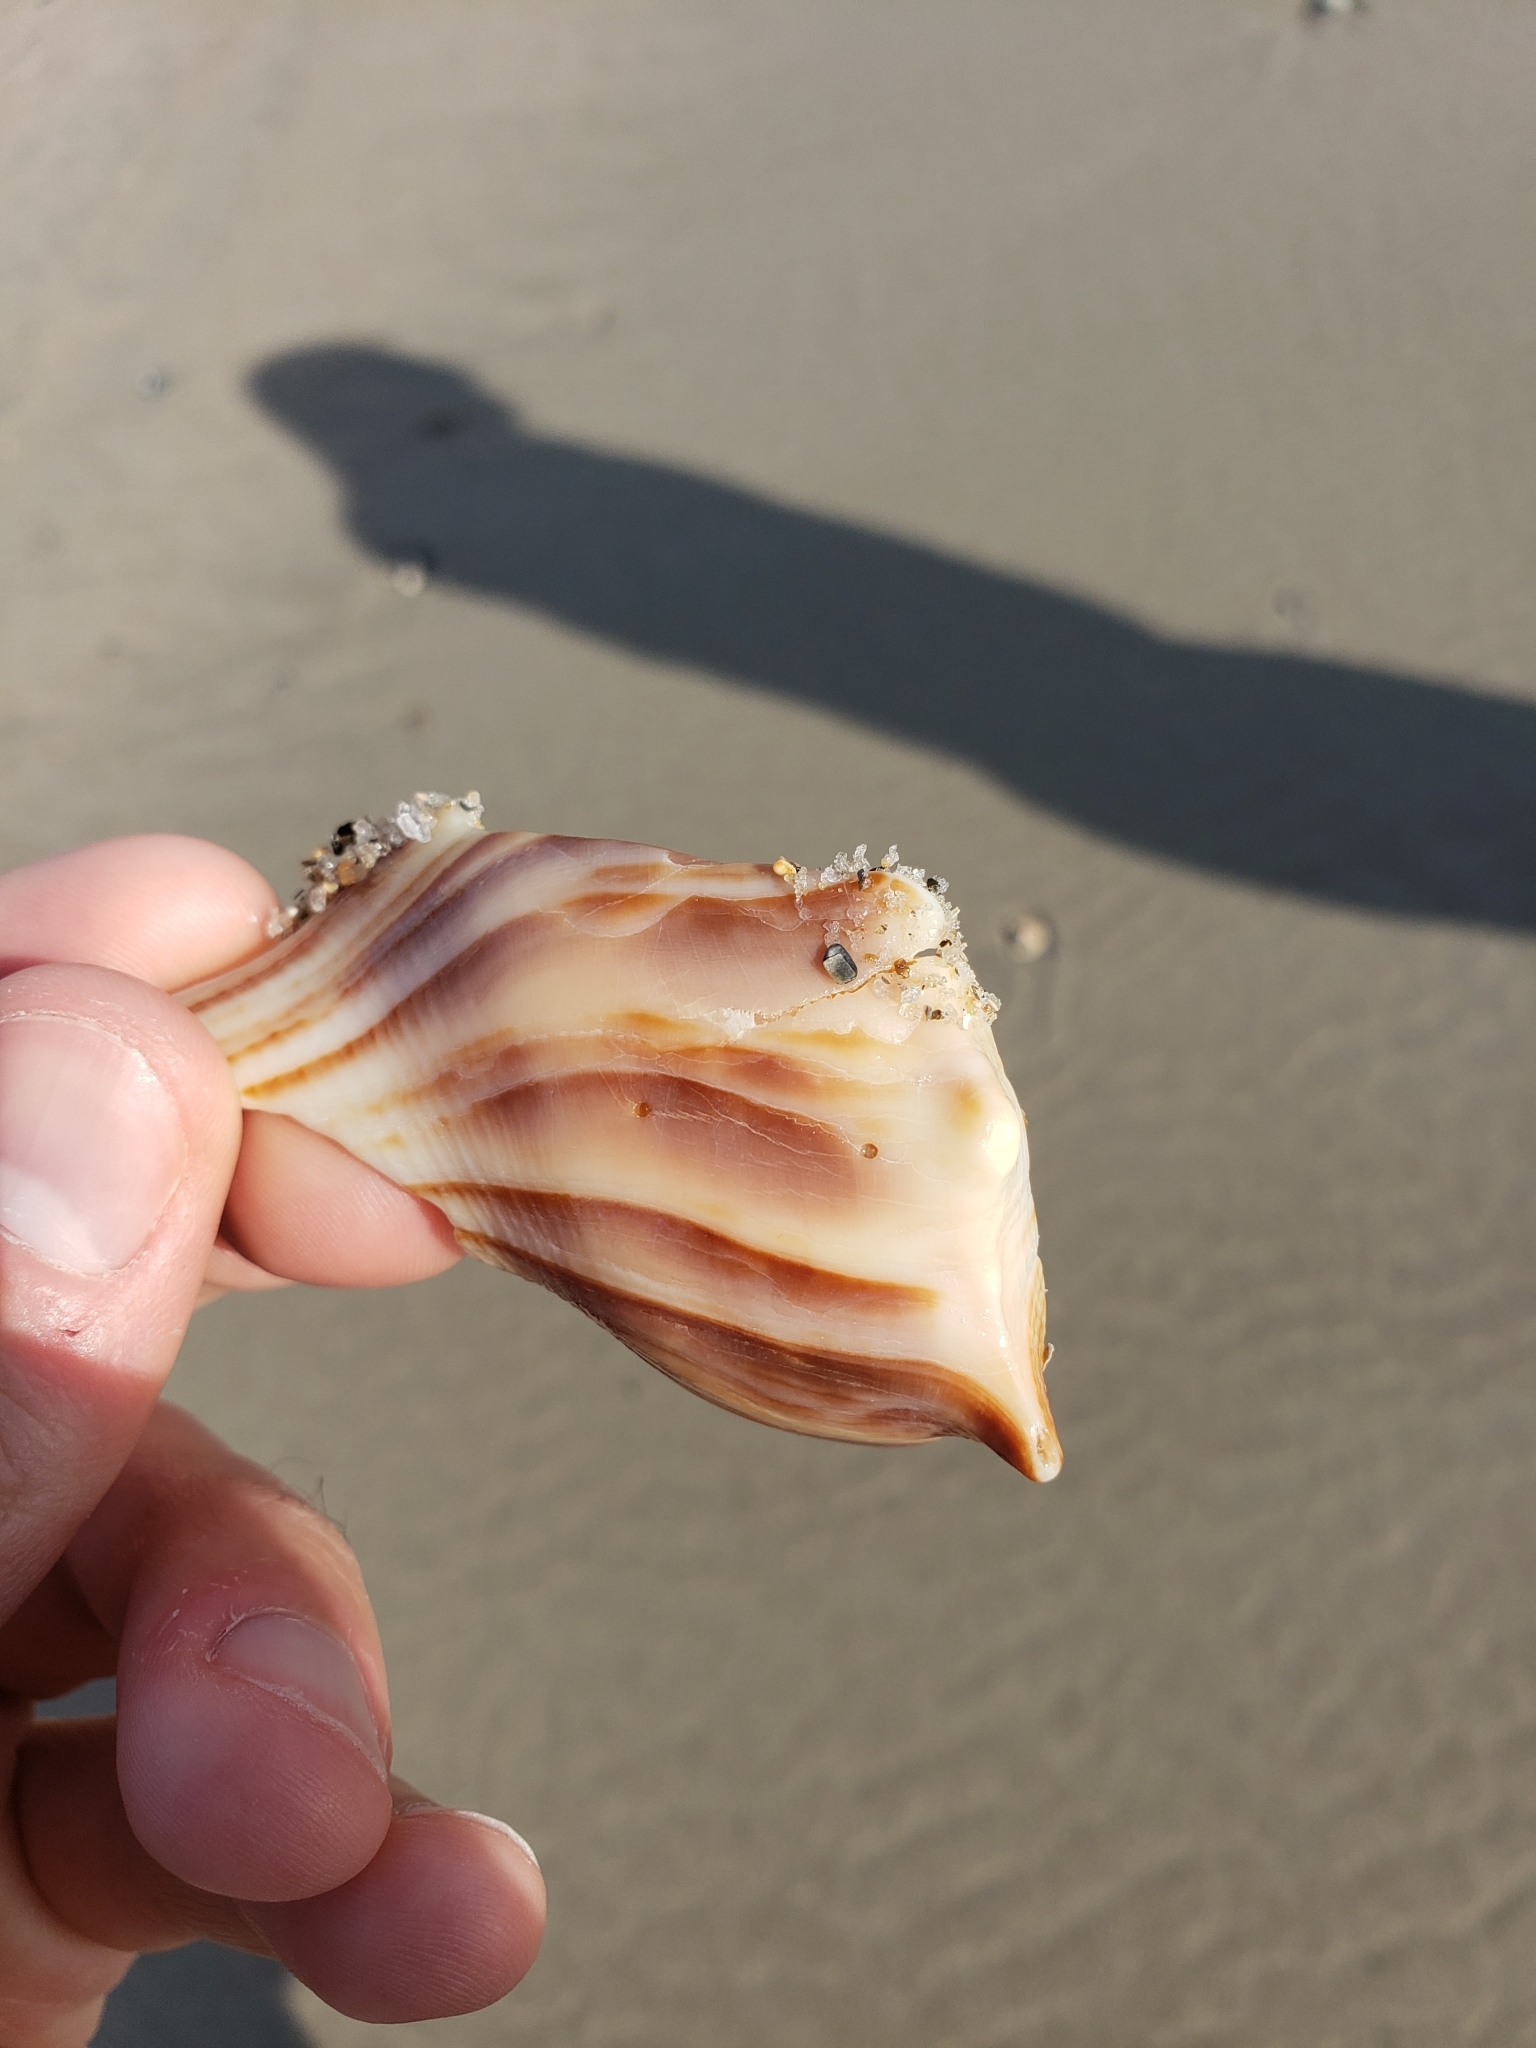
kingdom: Animalia
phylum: Mollusca
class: Gastropoda
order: Neogastropoda
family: Busyconidae
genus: Sinistrofulgur
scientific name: Sinistrofulgur sinistrum
